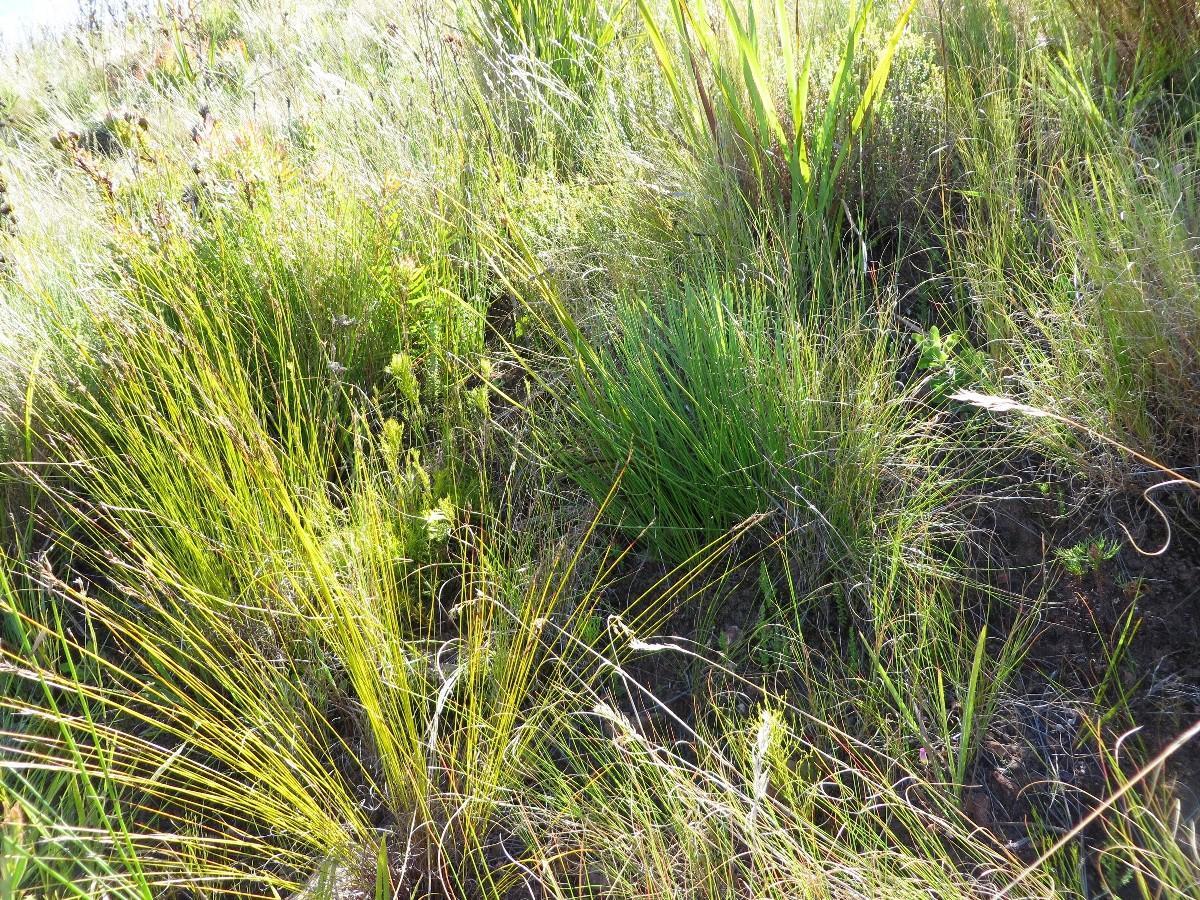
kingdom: Plantae
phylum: Tracheophyta
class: Magnoliopsida
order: Proteales
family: Proteaceae
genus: Protea
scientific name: Protea lorea
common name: Thong-leaf sugarbush
